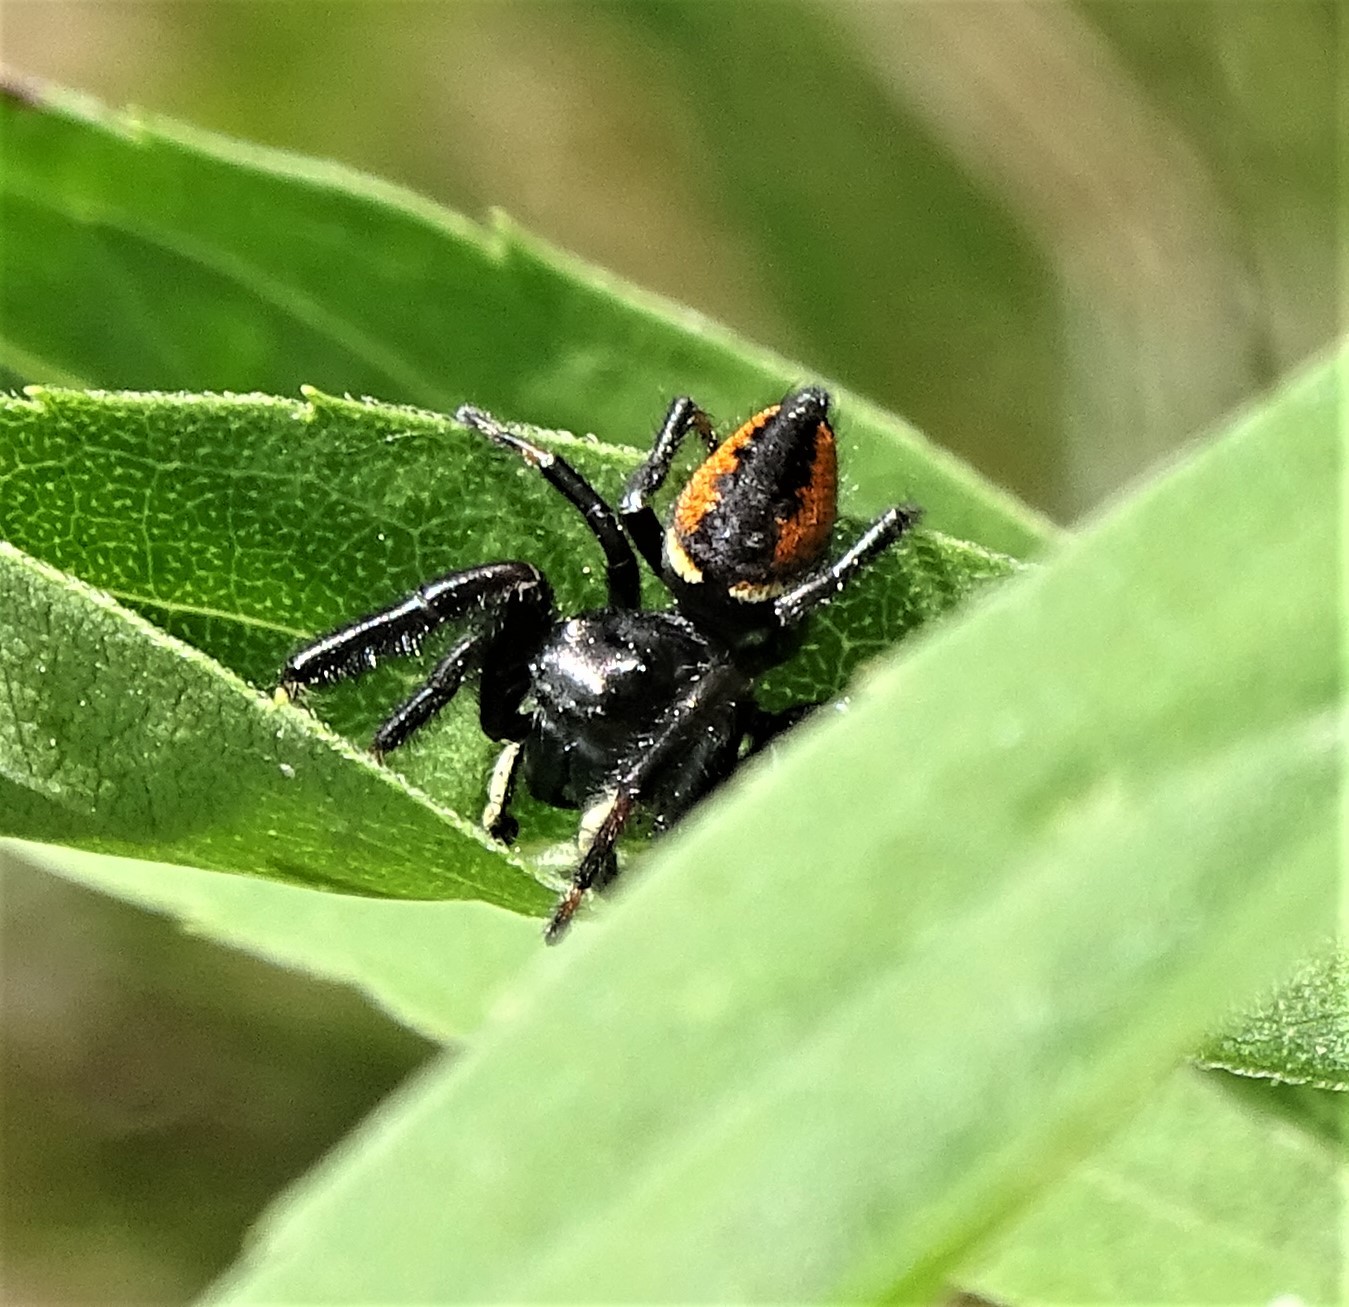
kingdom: Animalia
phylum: Arthropoda
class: Arachnida
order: Araneae
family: Salticidae
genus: Phidippus
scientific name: Phidippus clarus
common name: Brilliant jumping spider
